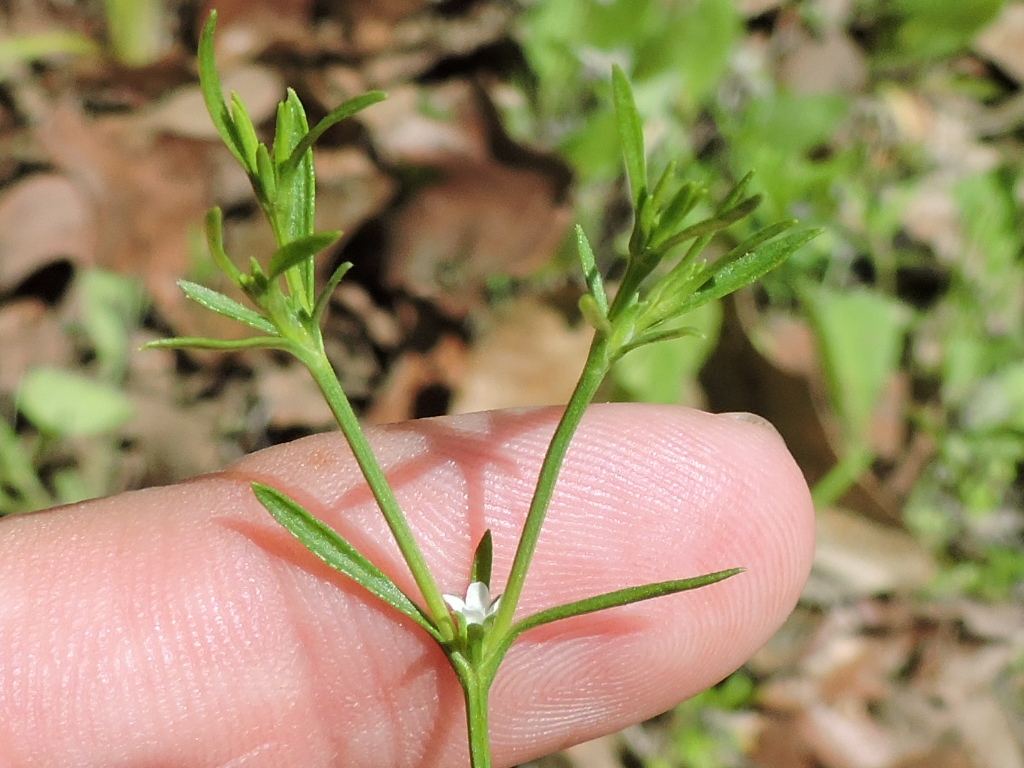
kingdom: Plantae
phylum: Tracheophyta
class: Magnoliopsida
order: Lamiales
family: Tetrachondraceae
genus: Polypremum
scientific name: Polypremum procumbens
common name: Juniper-leaf
